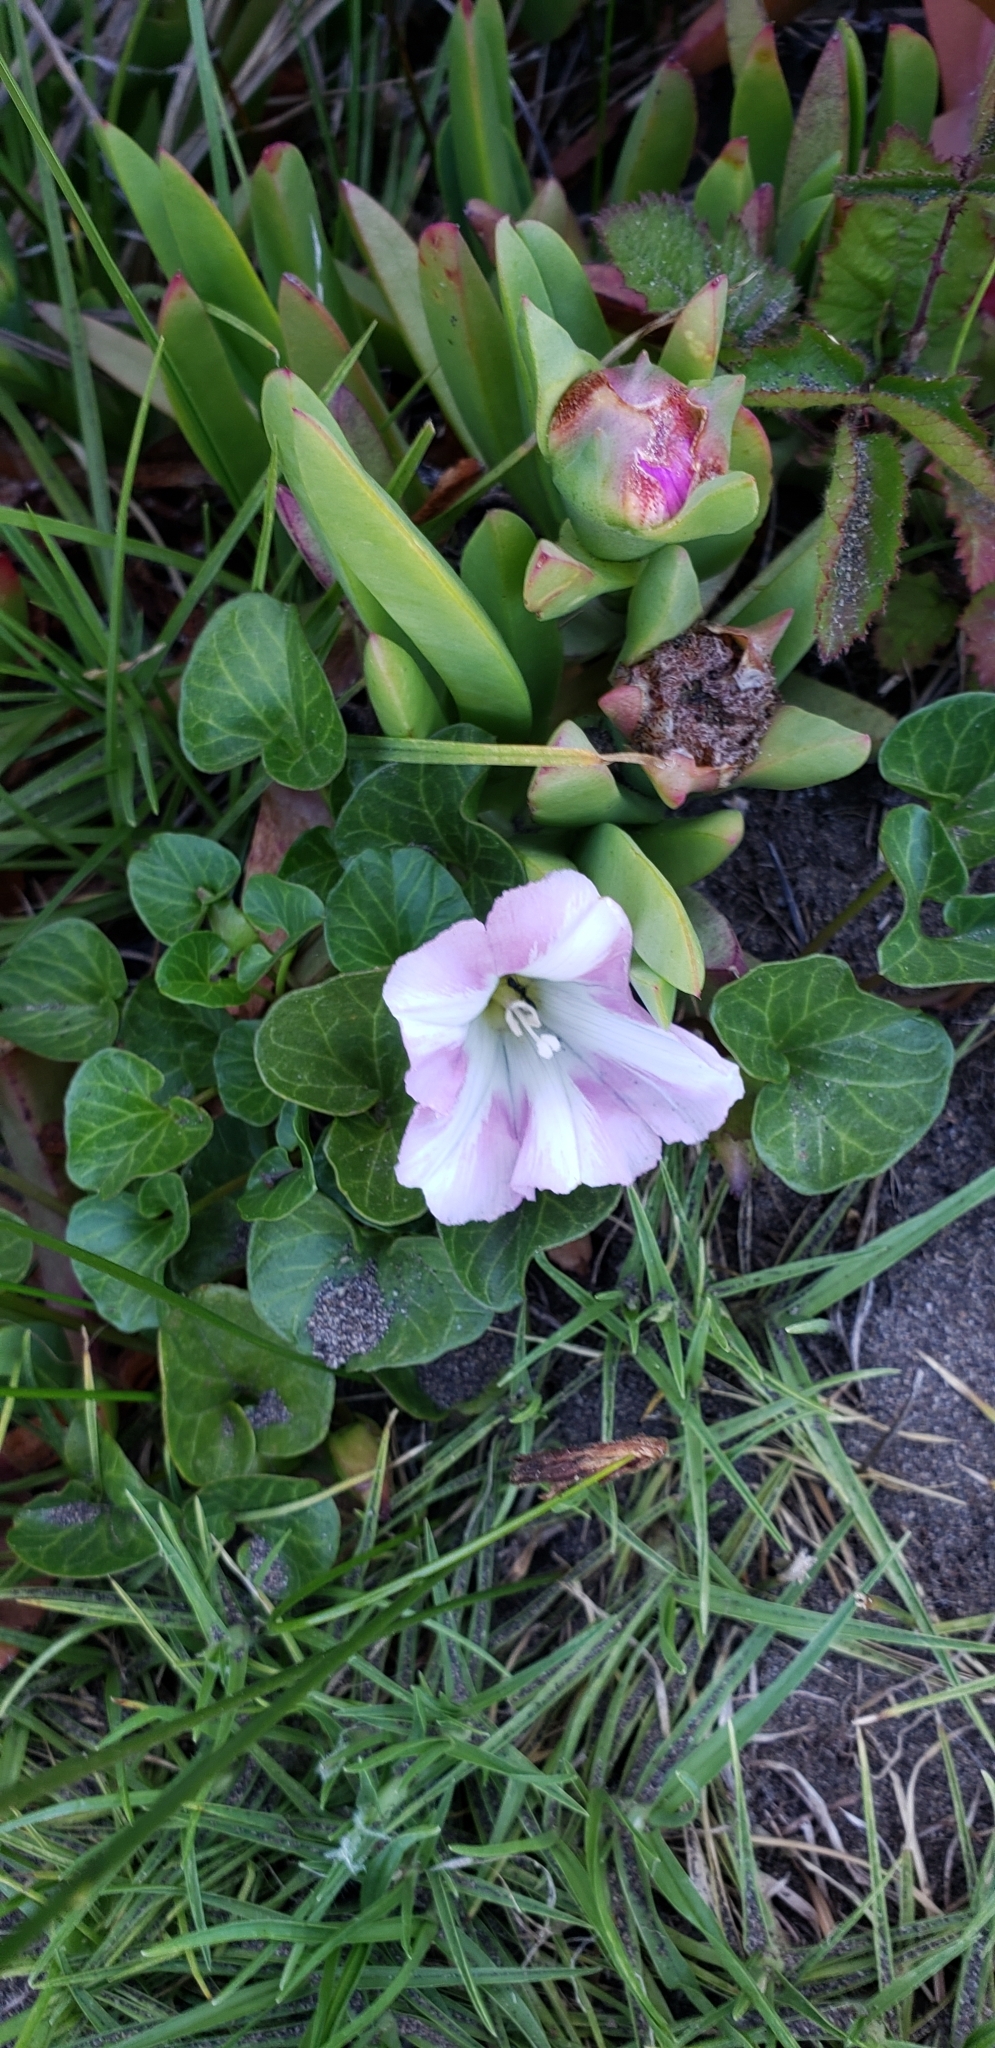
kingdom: Plantae
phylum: Tracheophyta
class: Magnoliopsida
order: Solanales
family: Convolvulaceae
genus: Calystegia
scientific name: Calystegia soldanella
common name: Sea bindweed
